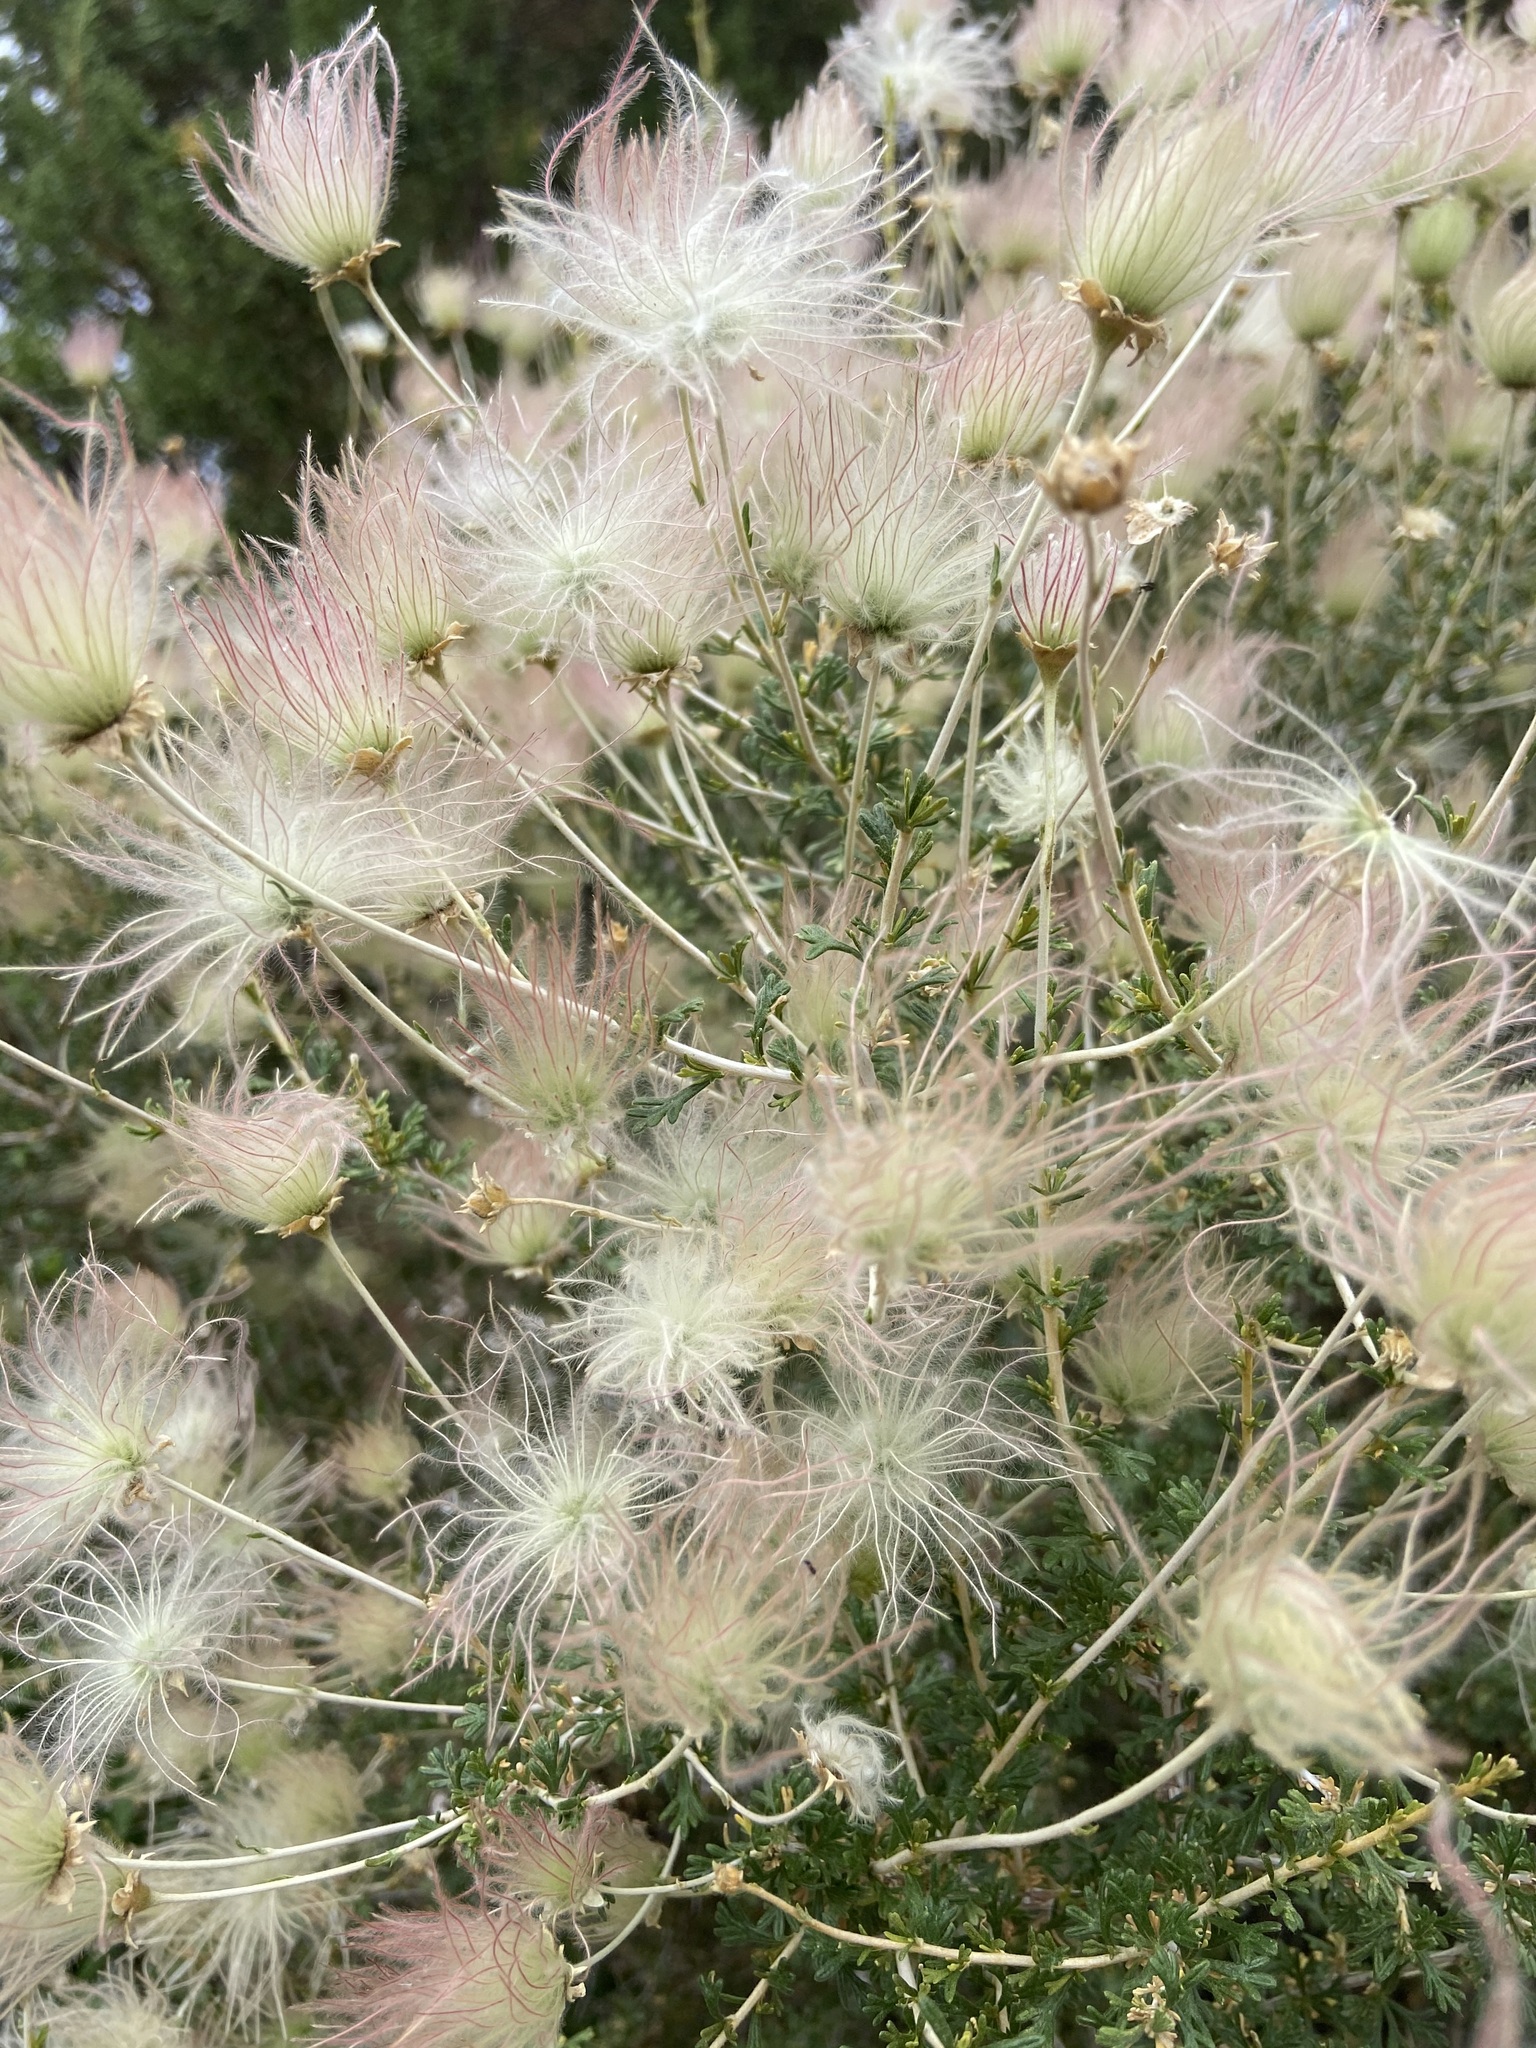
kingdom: Plantae
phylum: Tracheophyta
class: Magnoliopsida
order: Rosales
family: Rosaceae
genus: Fallugia
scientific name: Fallugia paradoxa
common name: Apache-plume
